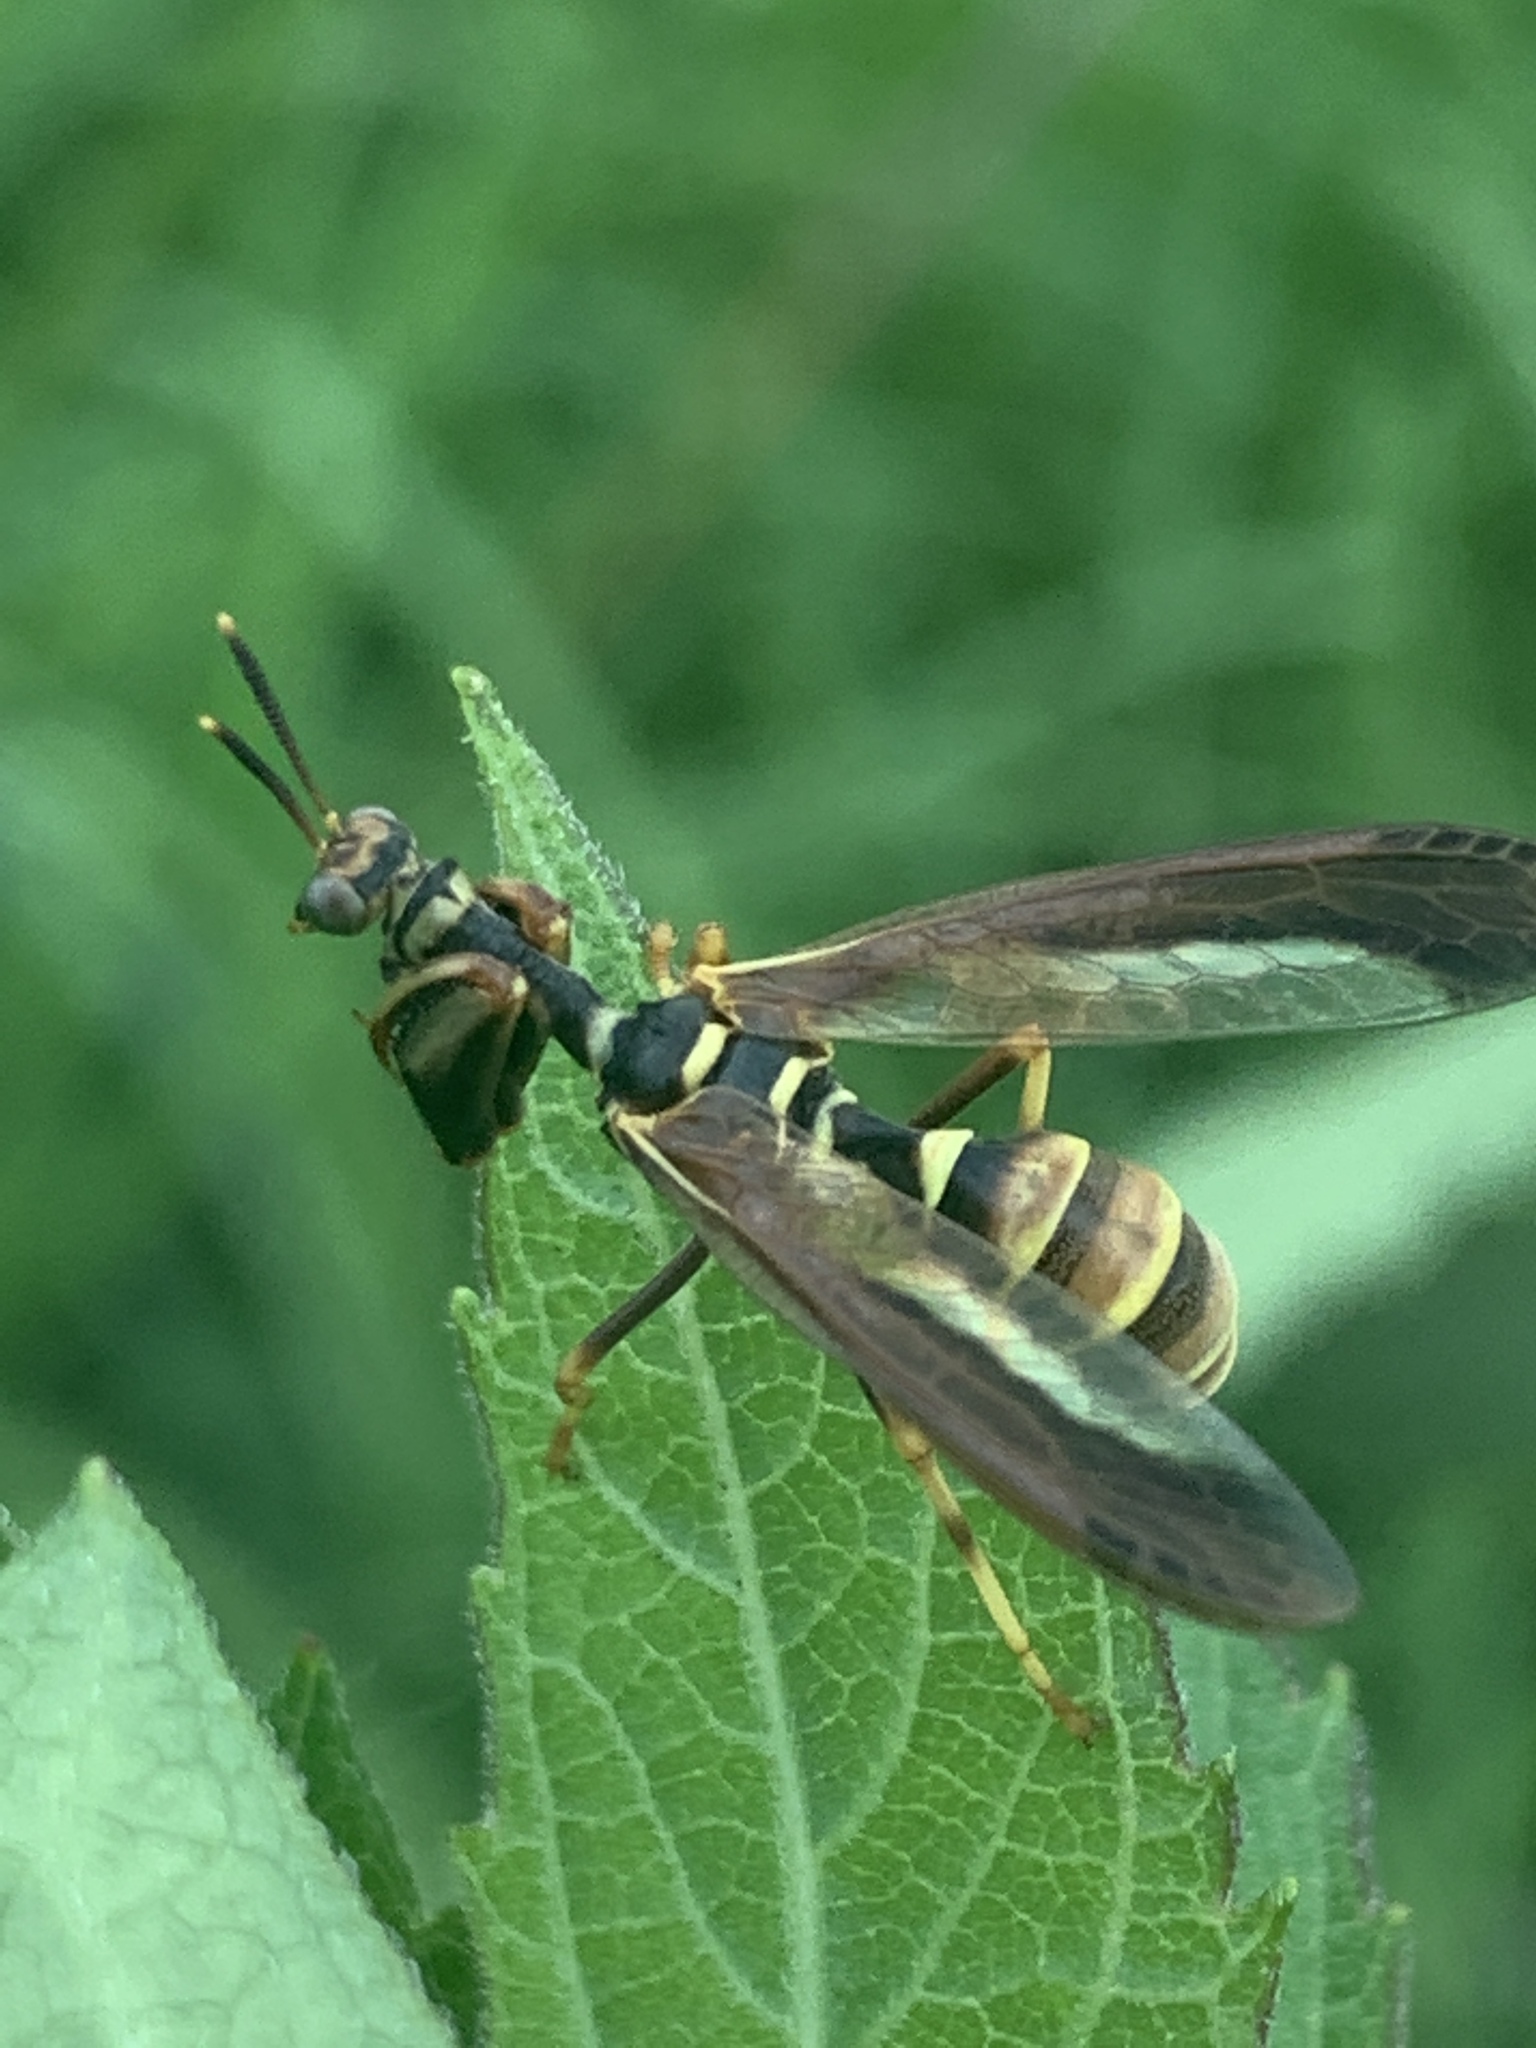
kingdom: Animalia
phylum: Arthropoda
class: Insecta
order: Neuroptera
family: Mantispidae
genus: Climaciella
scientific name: Climaciella brunnea
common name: Brown wasp mantidfly
